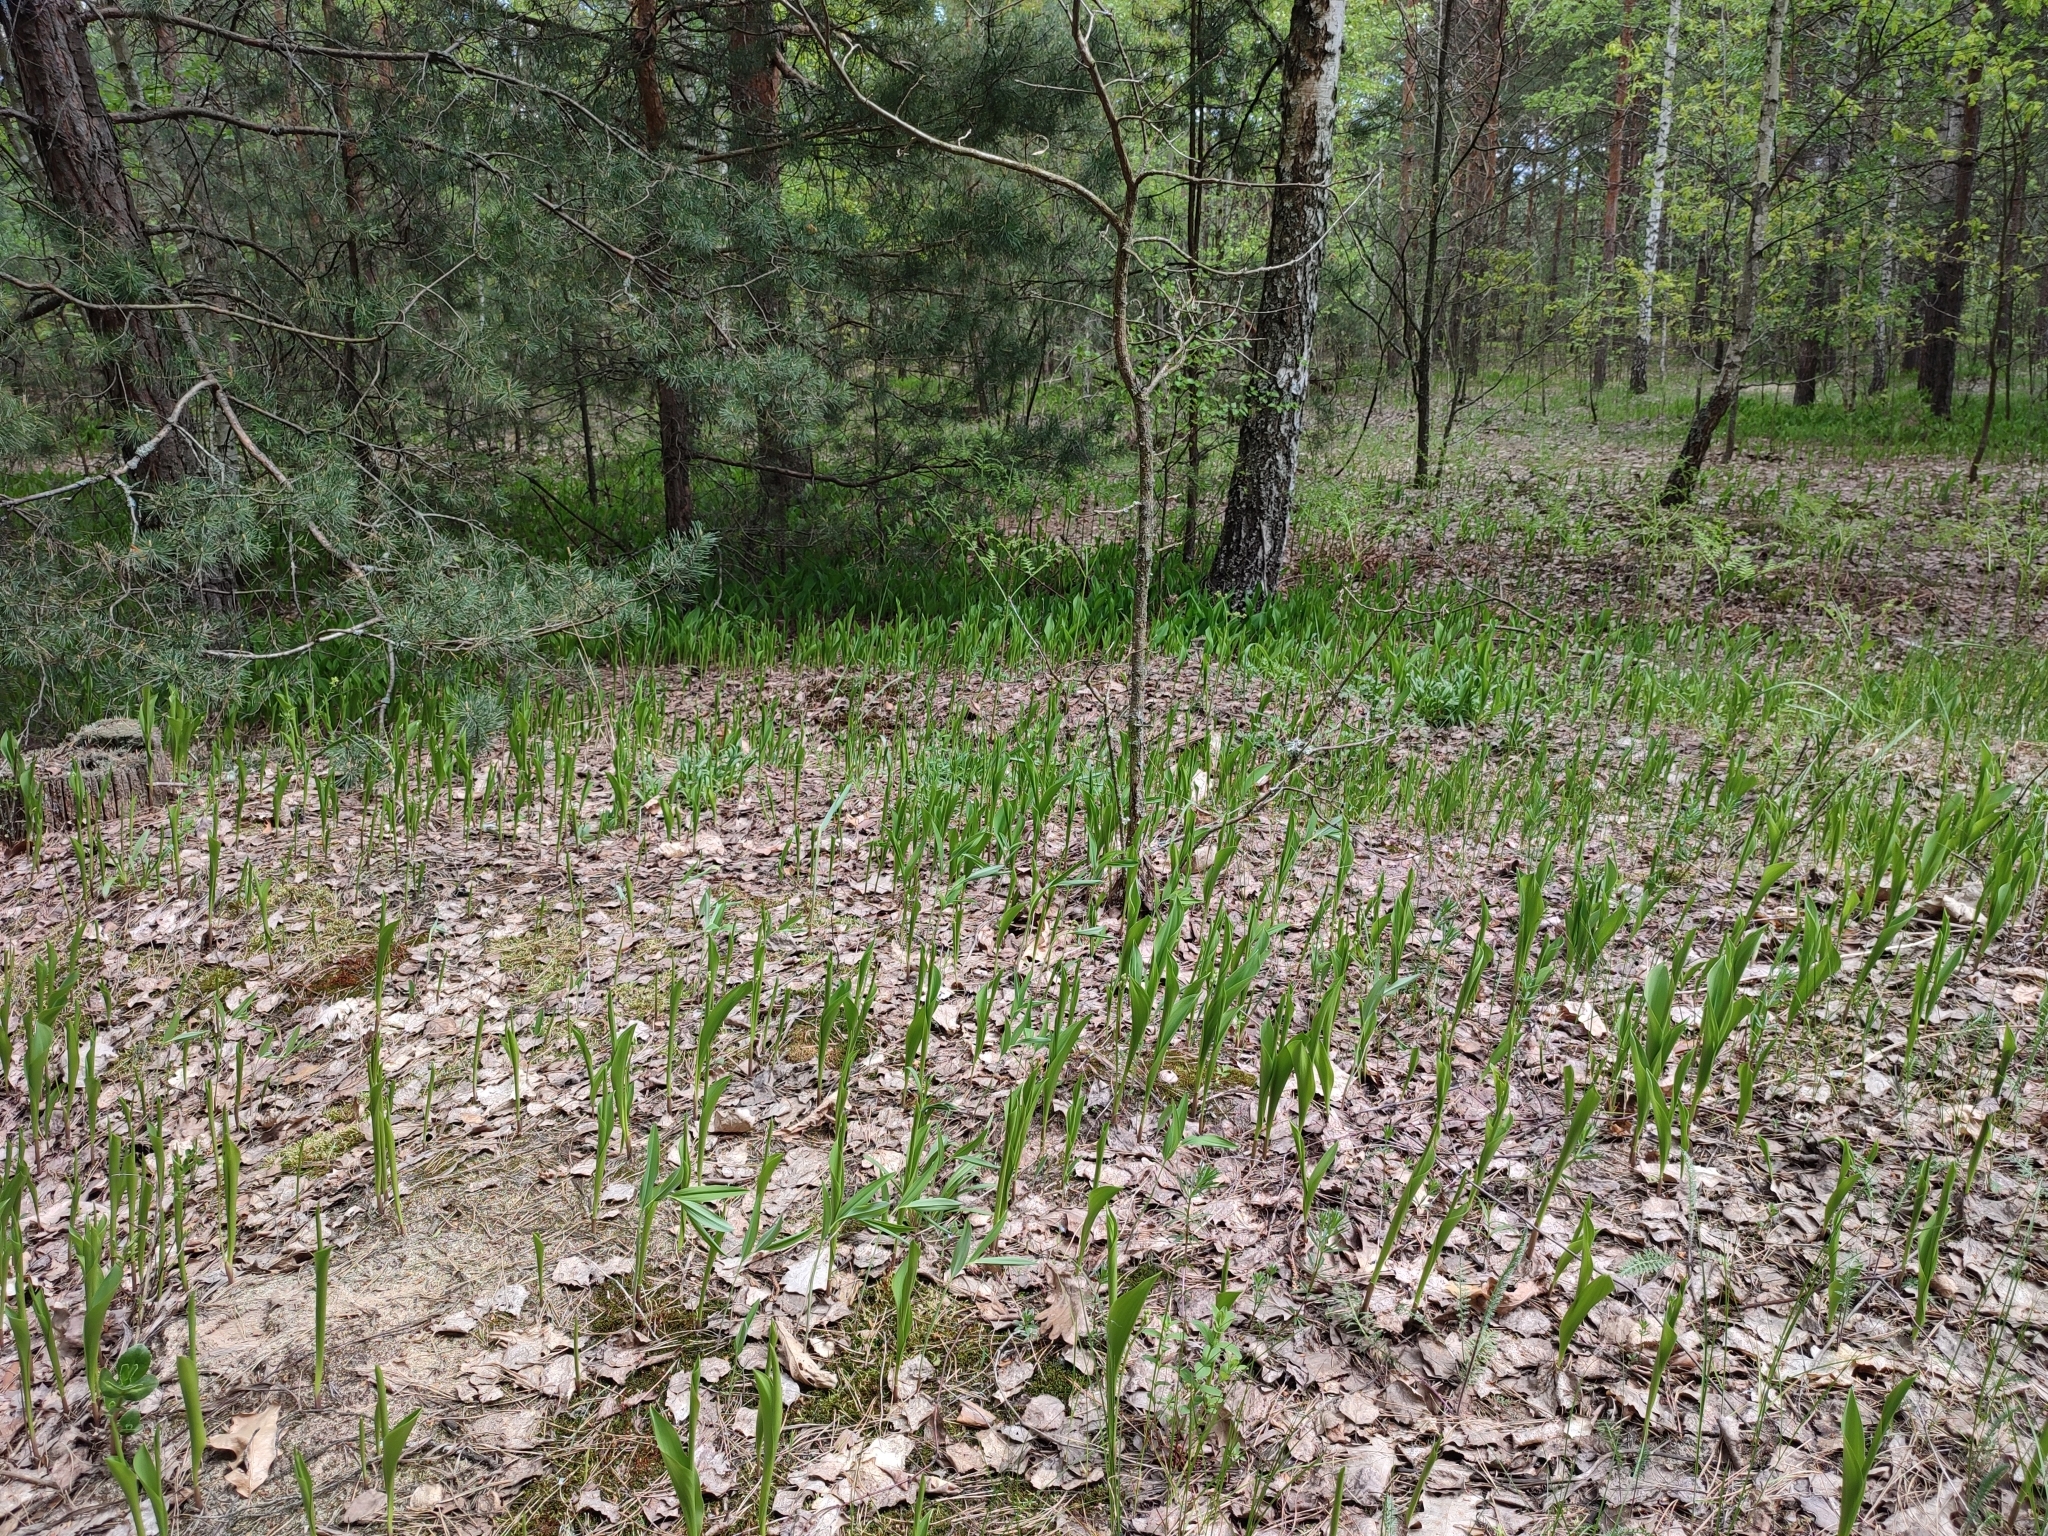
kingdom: Plantae
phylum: Tracheophyta
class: Liliopsida
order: Asparagales
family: Asparagaceae
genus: Convallaria
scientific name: Convallaria majalis
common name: Lily-of-the-valley
